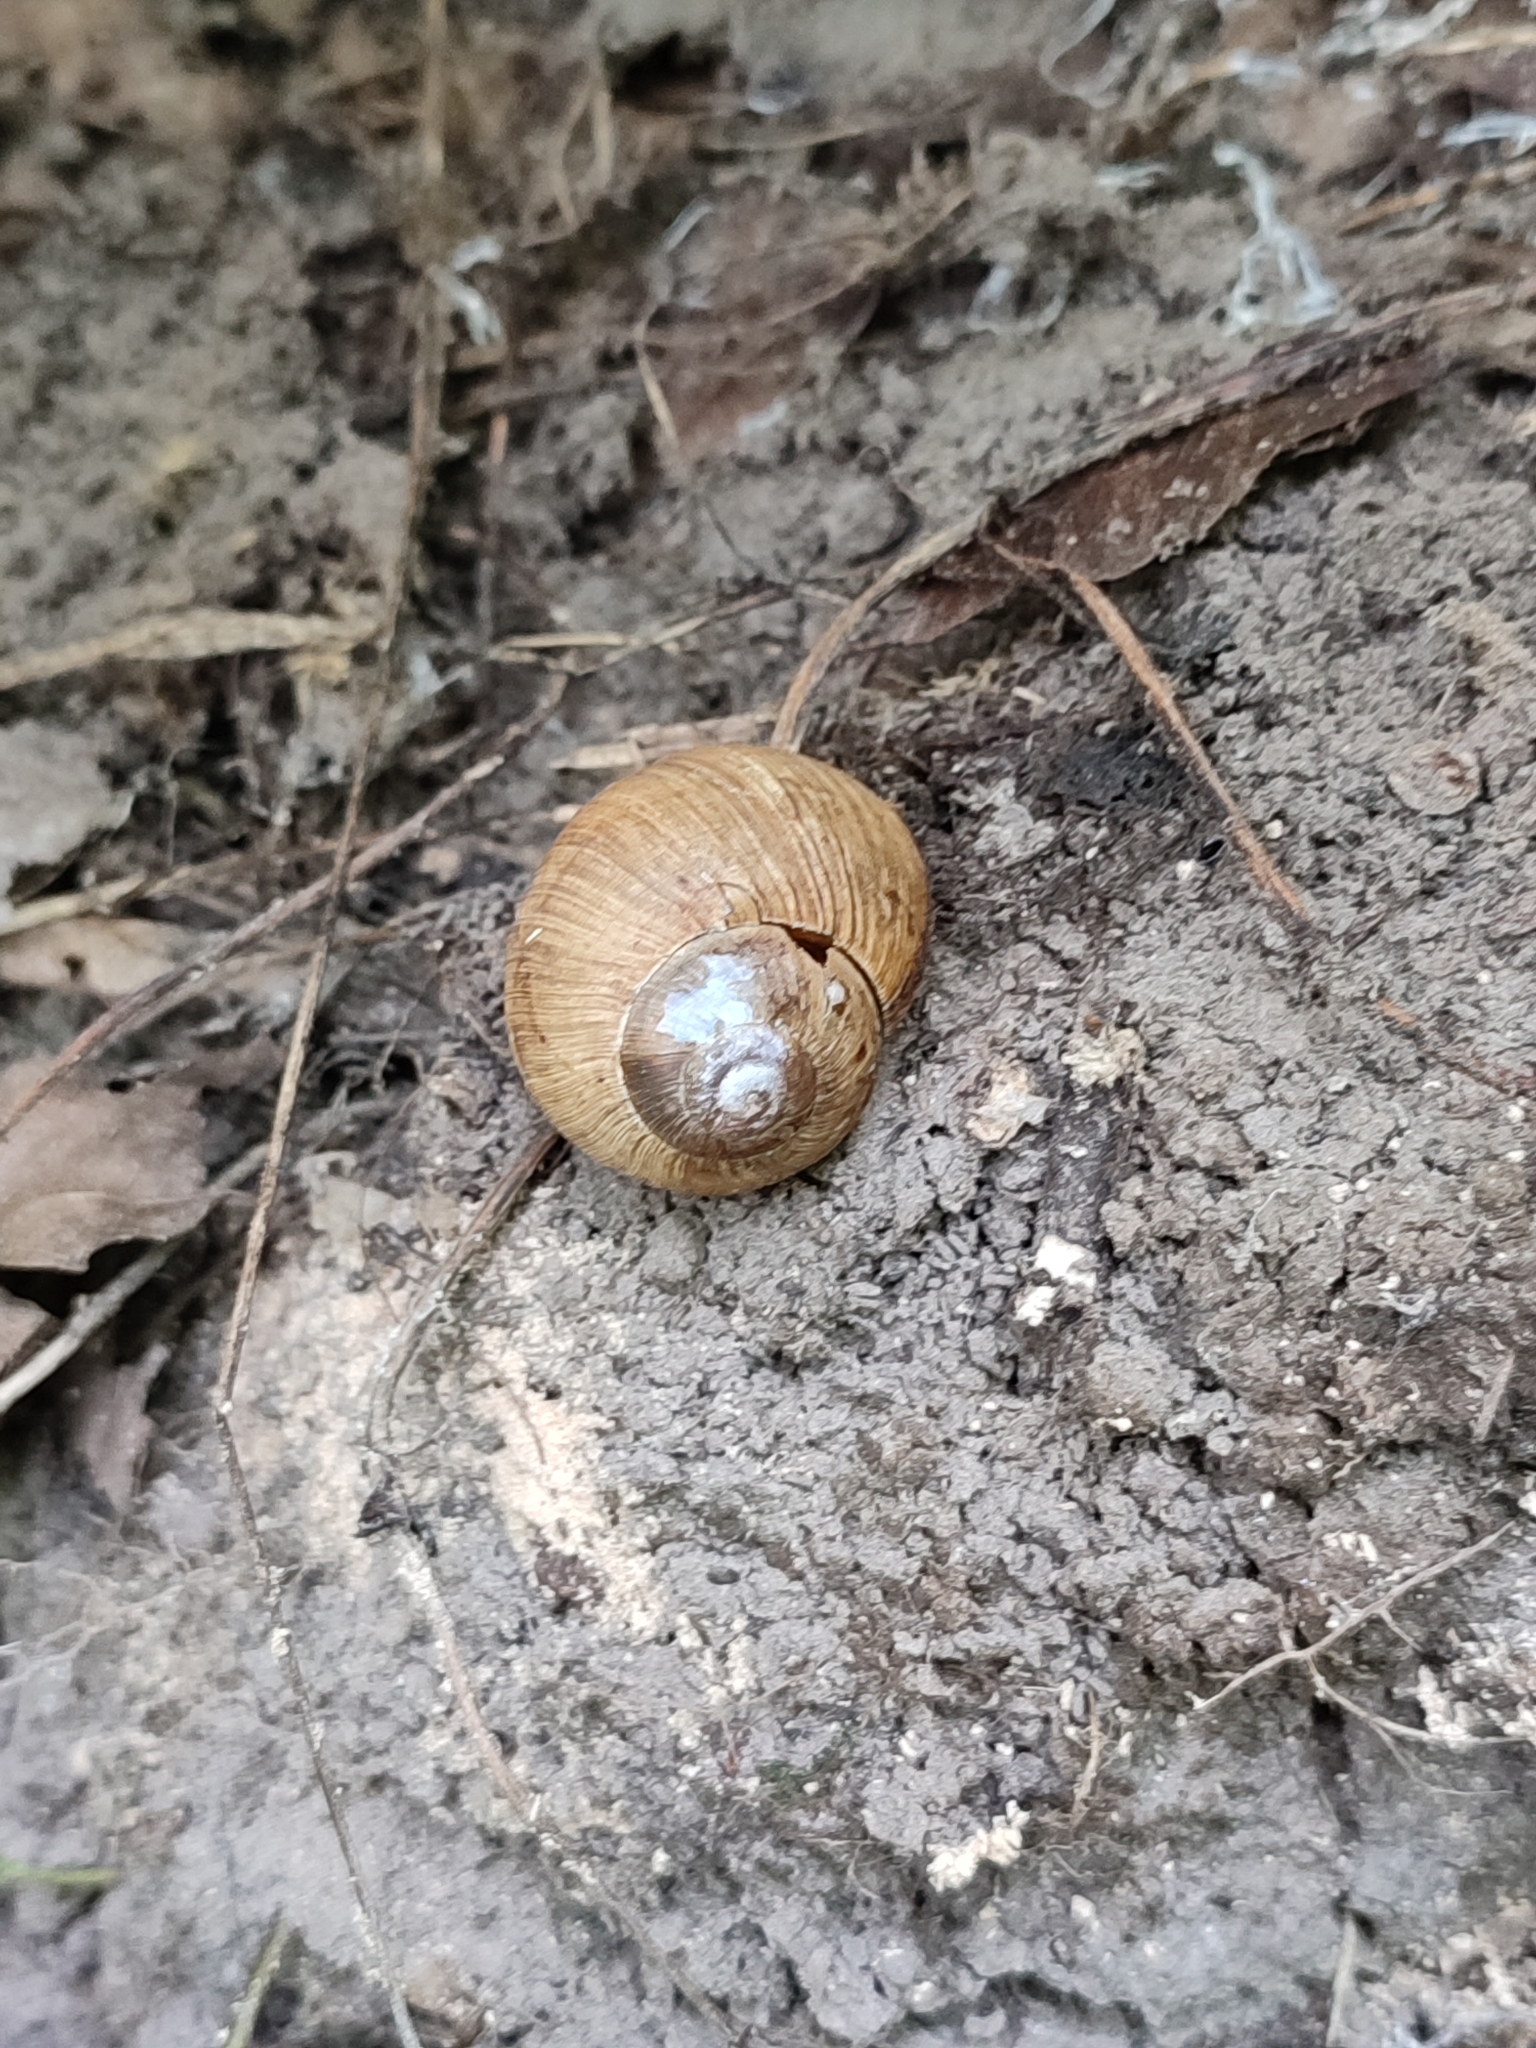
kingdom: Animalia
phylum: Mollusca
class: Gastropoda
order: Stylommatophora
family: Helicidae
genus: Helix
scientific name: Helix pomatia
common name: Roman snail
